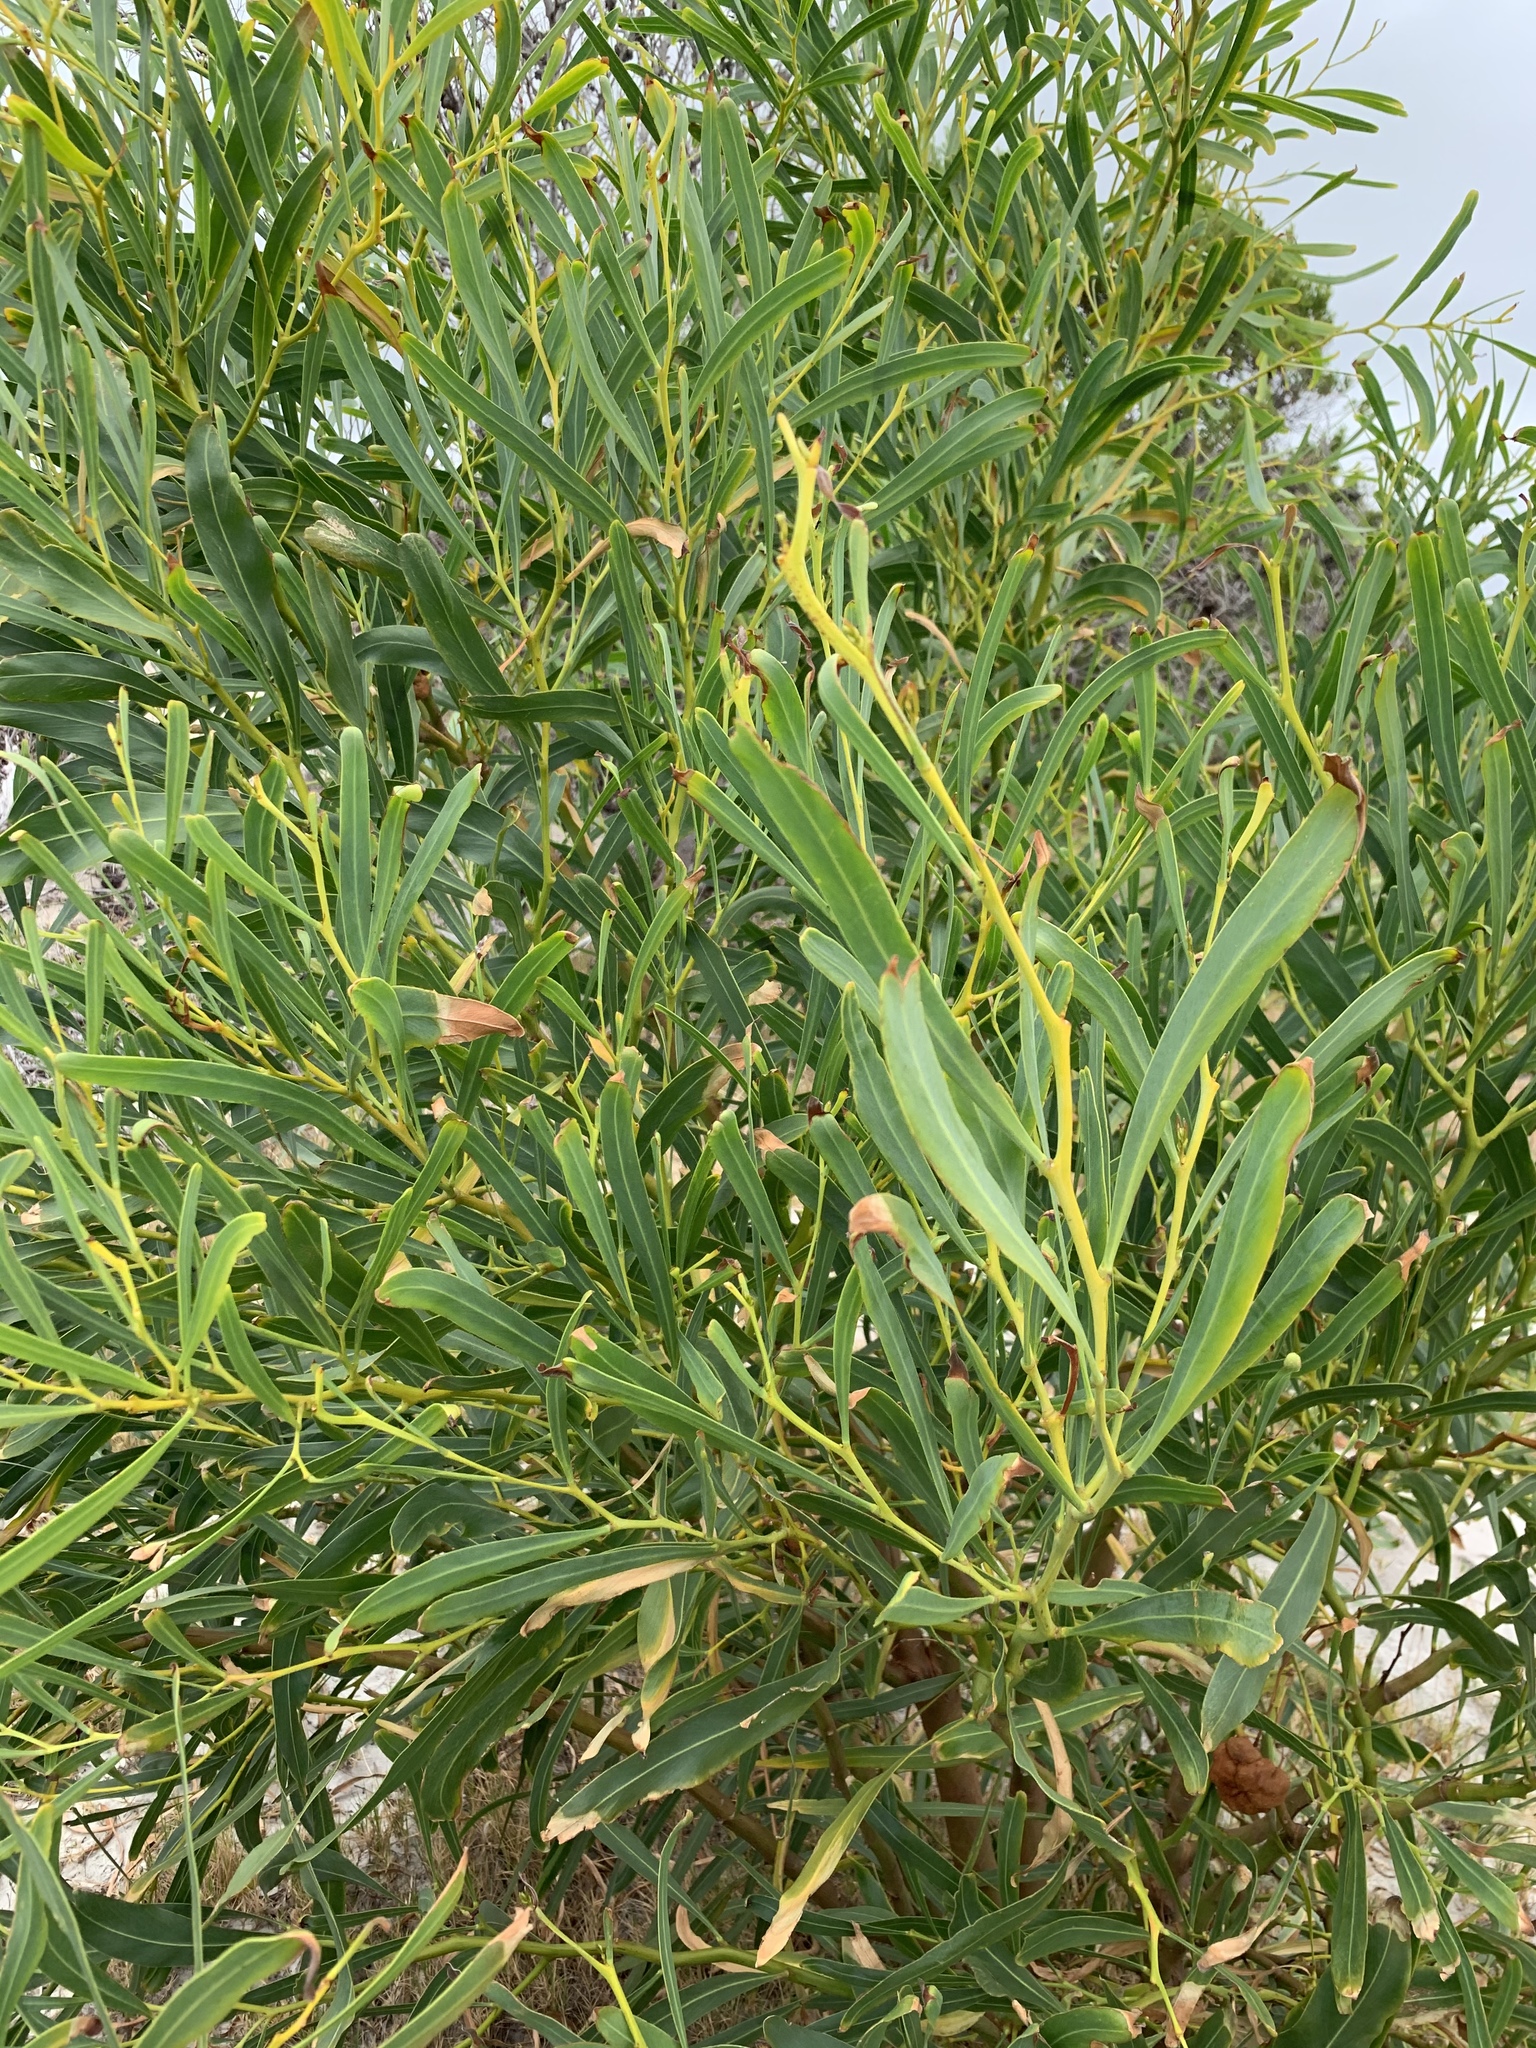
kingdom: Plantae
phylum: Tracheophyta
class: Magnoliopsida
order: Fabales
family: Fabaceae
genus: Acacia
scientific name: Acacia saligna
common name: Orange wattle
